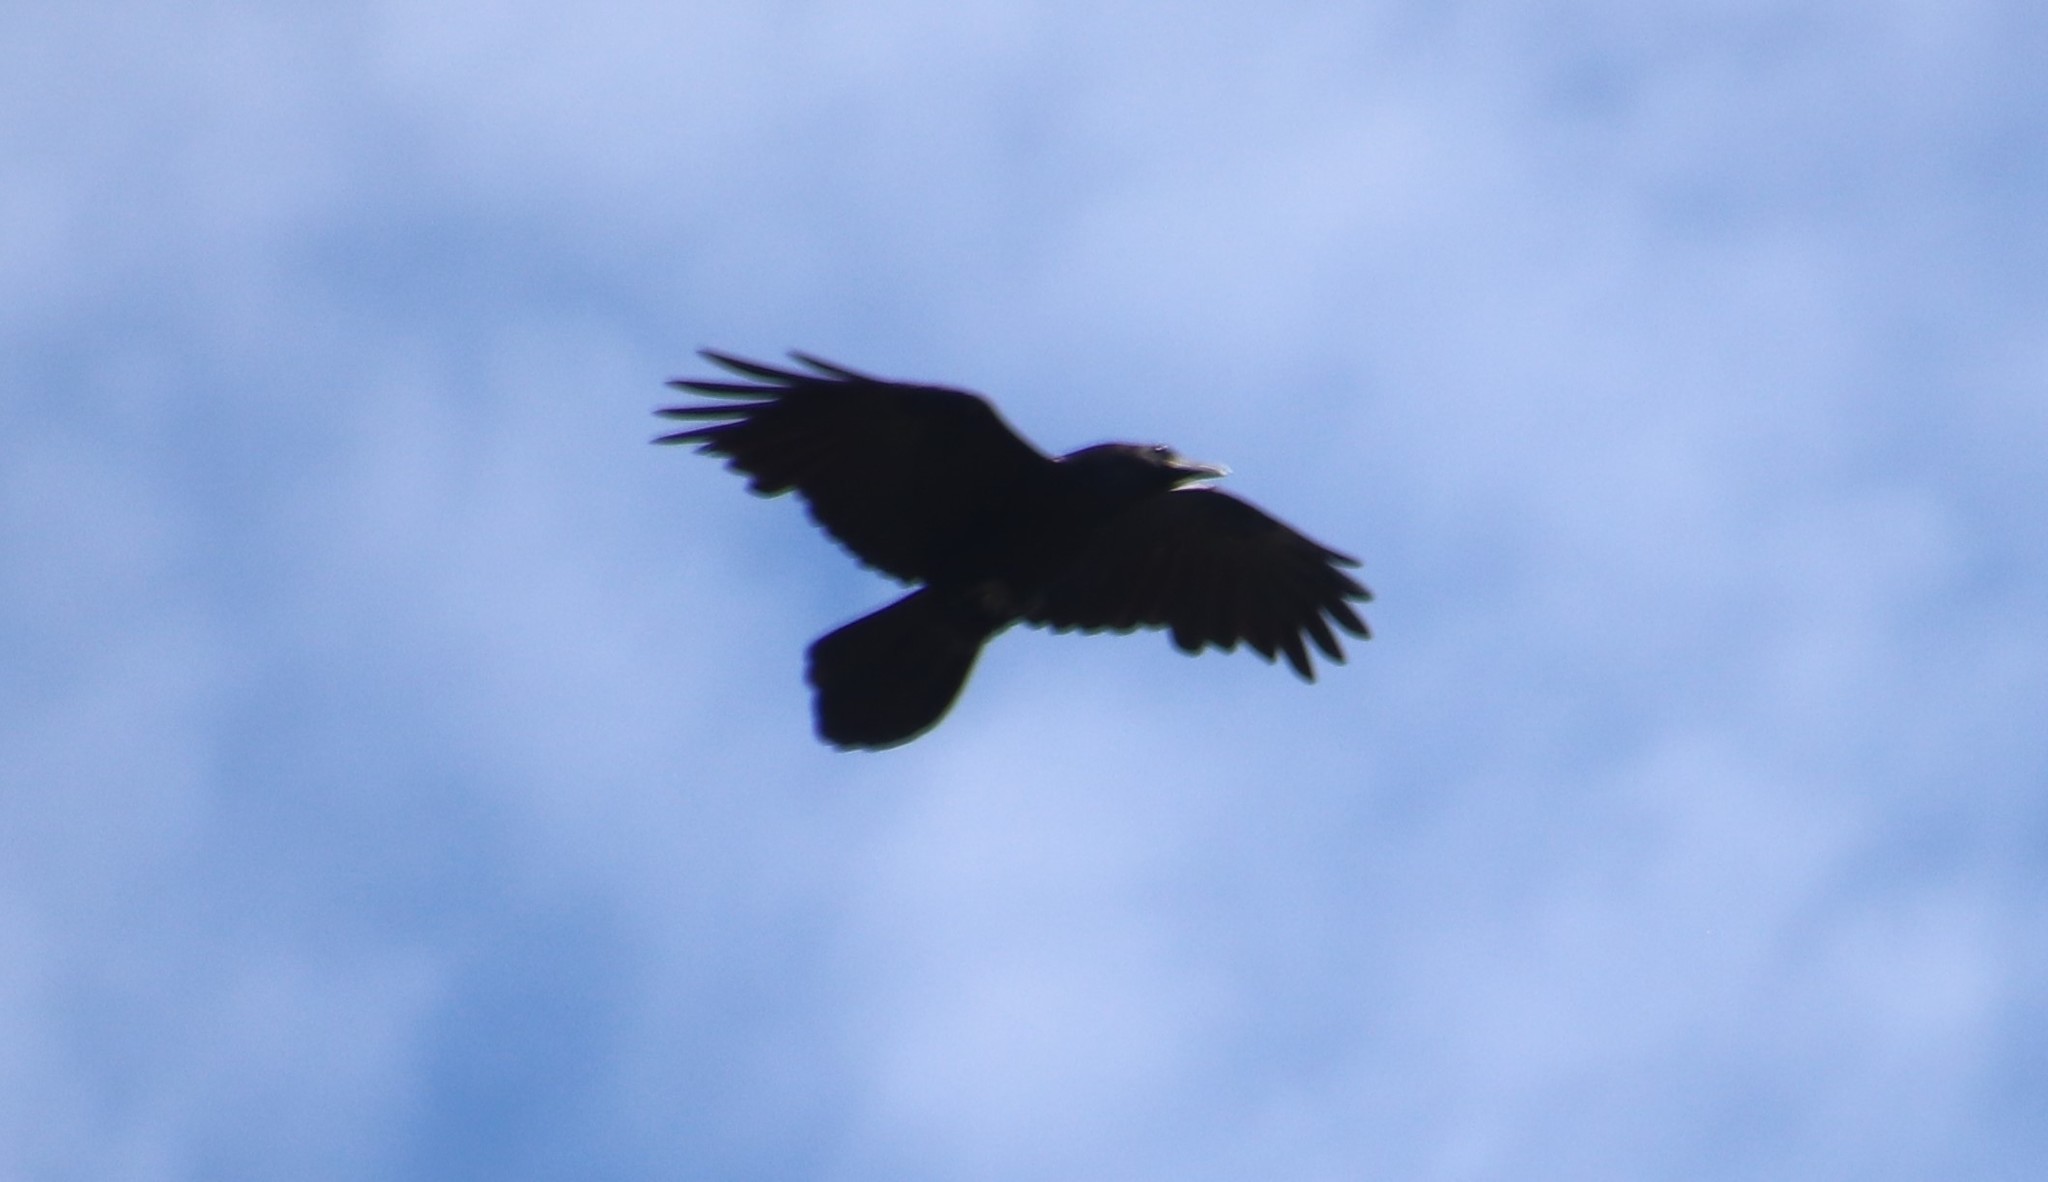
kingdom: Animalia
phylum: Chordata
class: Aves
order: Passeriformes
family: Corvidae
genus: Corvus
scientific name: Corvus corax
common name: Common raven
